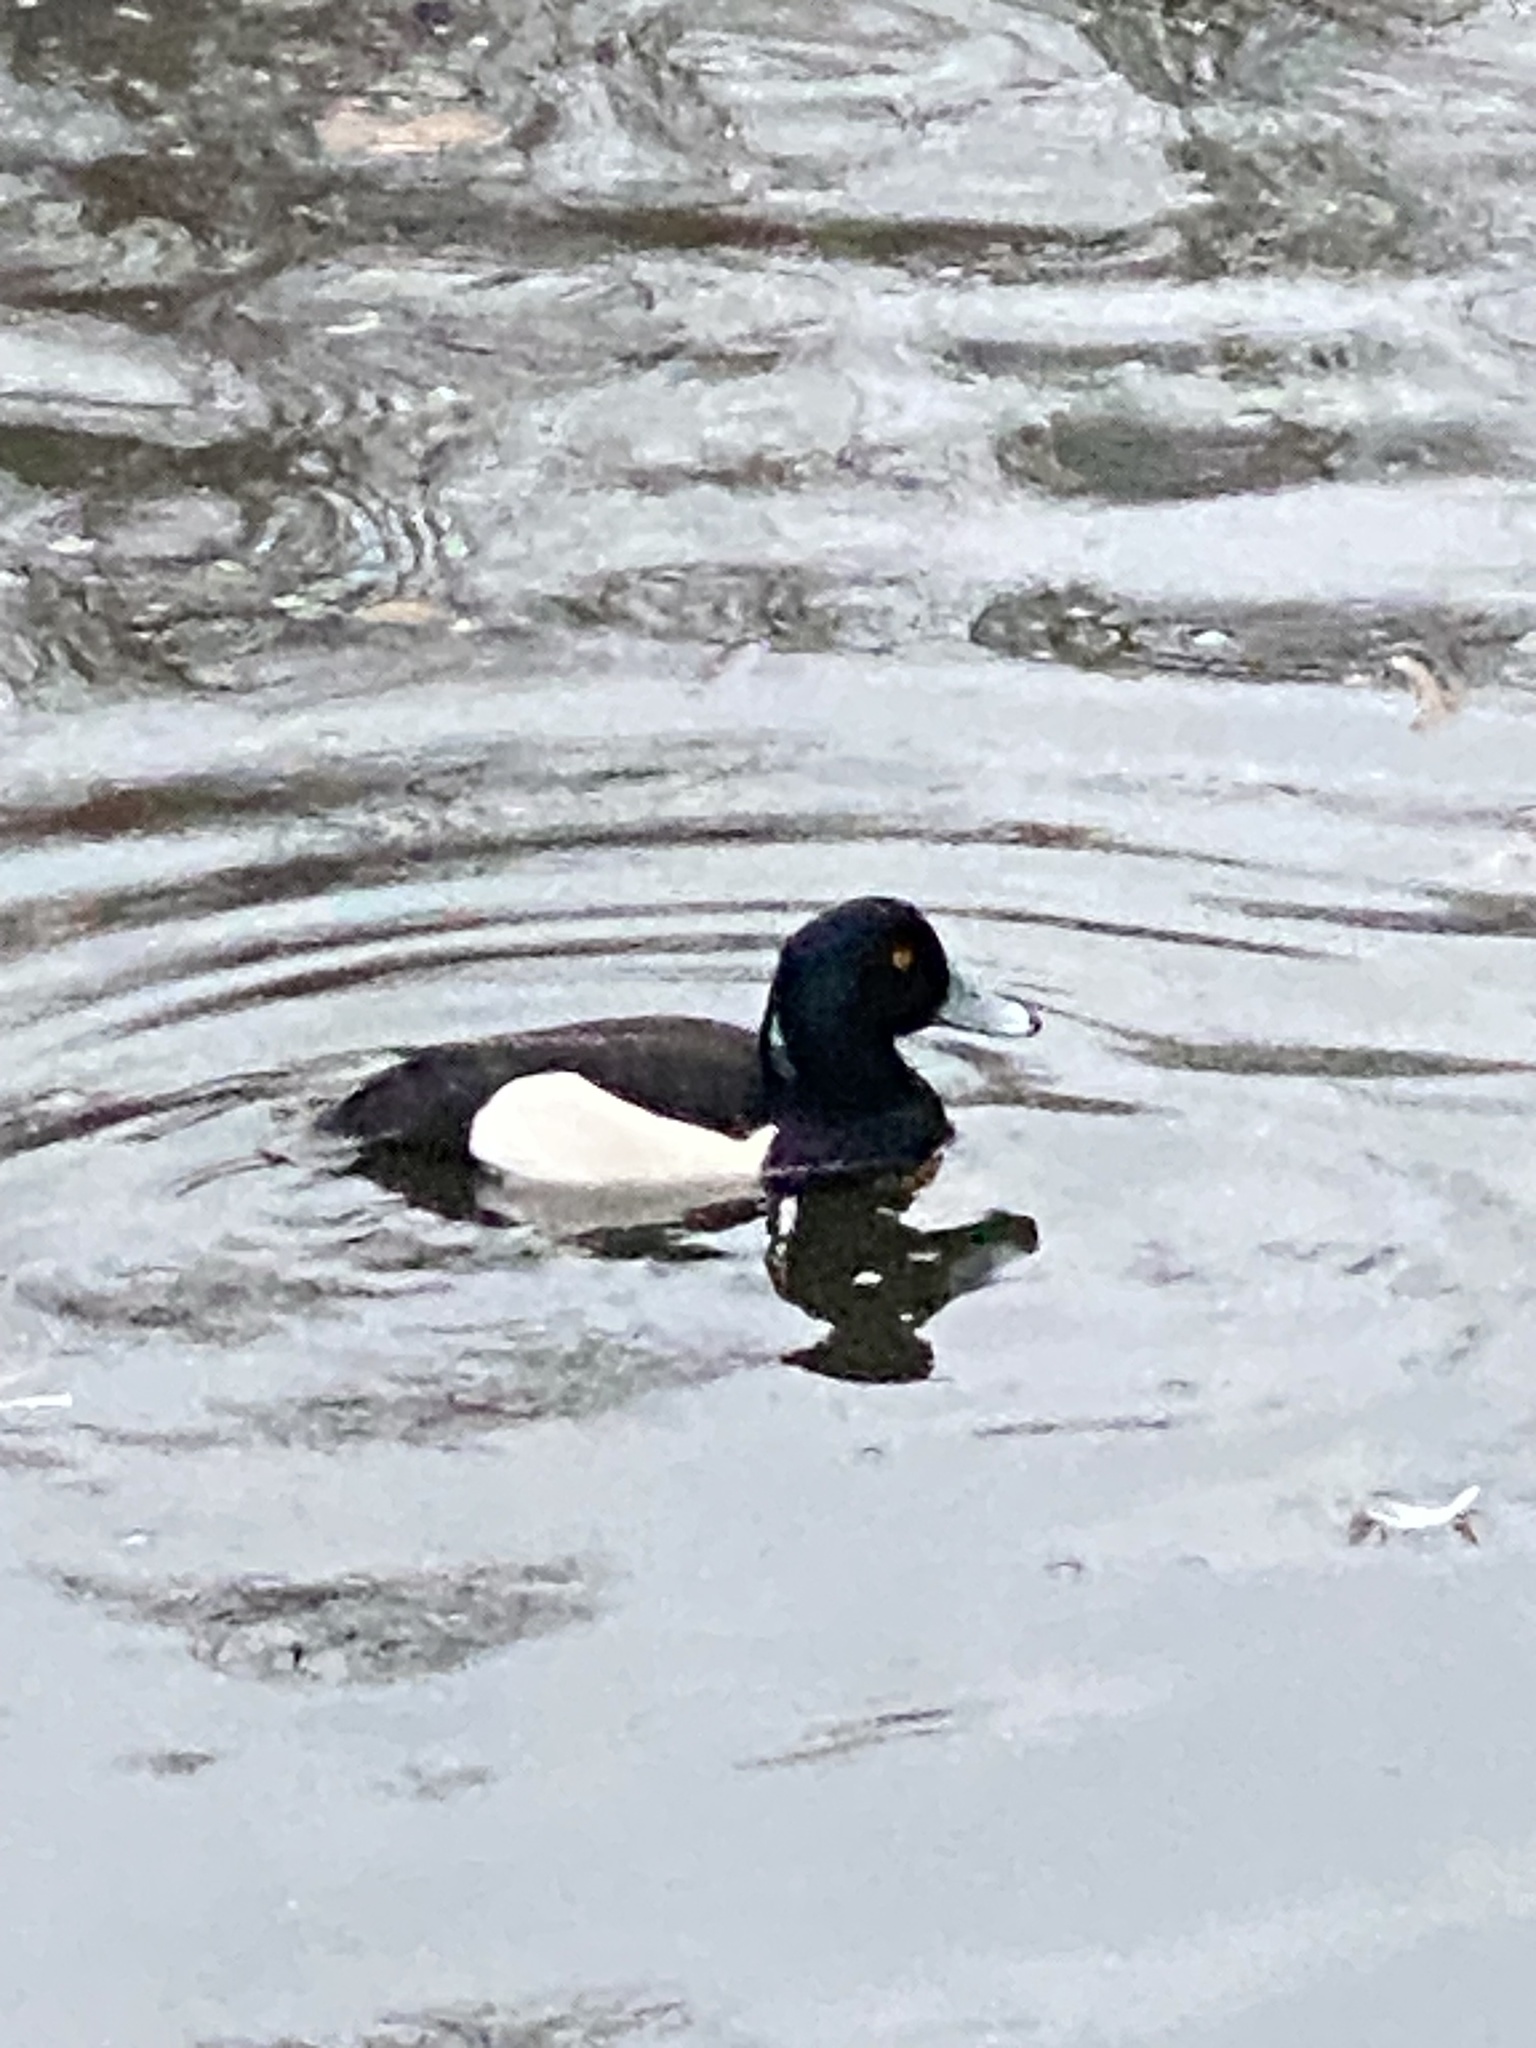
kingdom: Animalia
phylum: Chordata
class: Aves
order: Anseriformes
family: Anatidae
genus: Aythya
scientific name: Aythya fuligula
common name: Tufted duck
